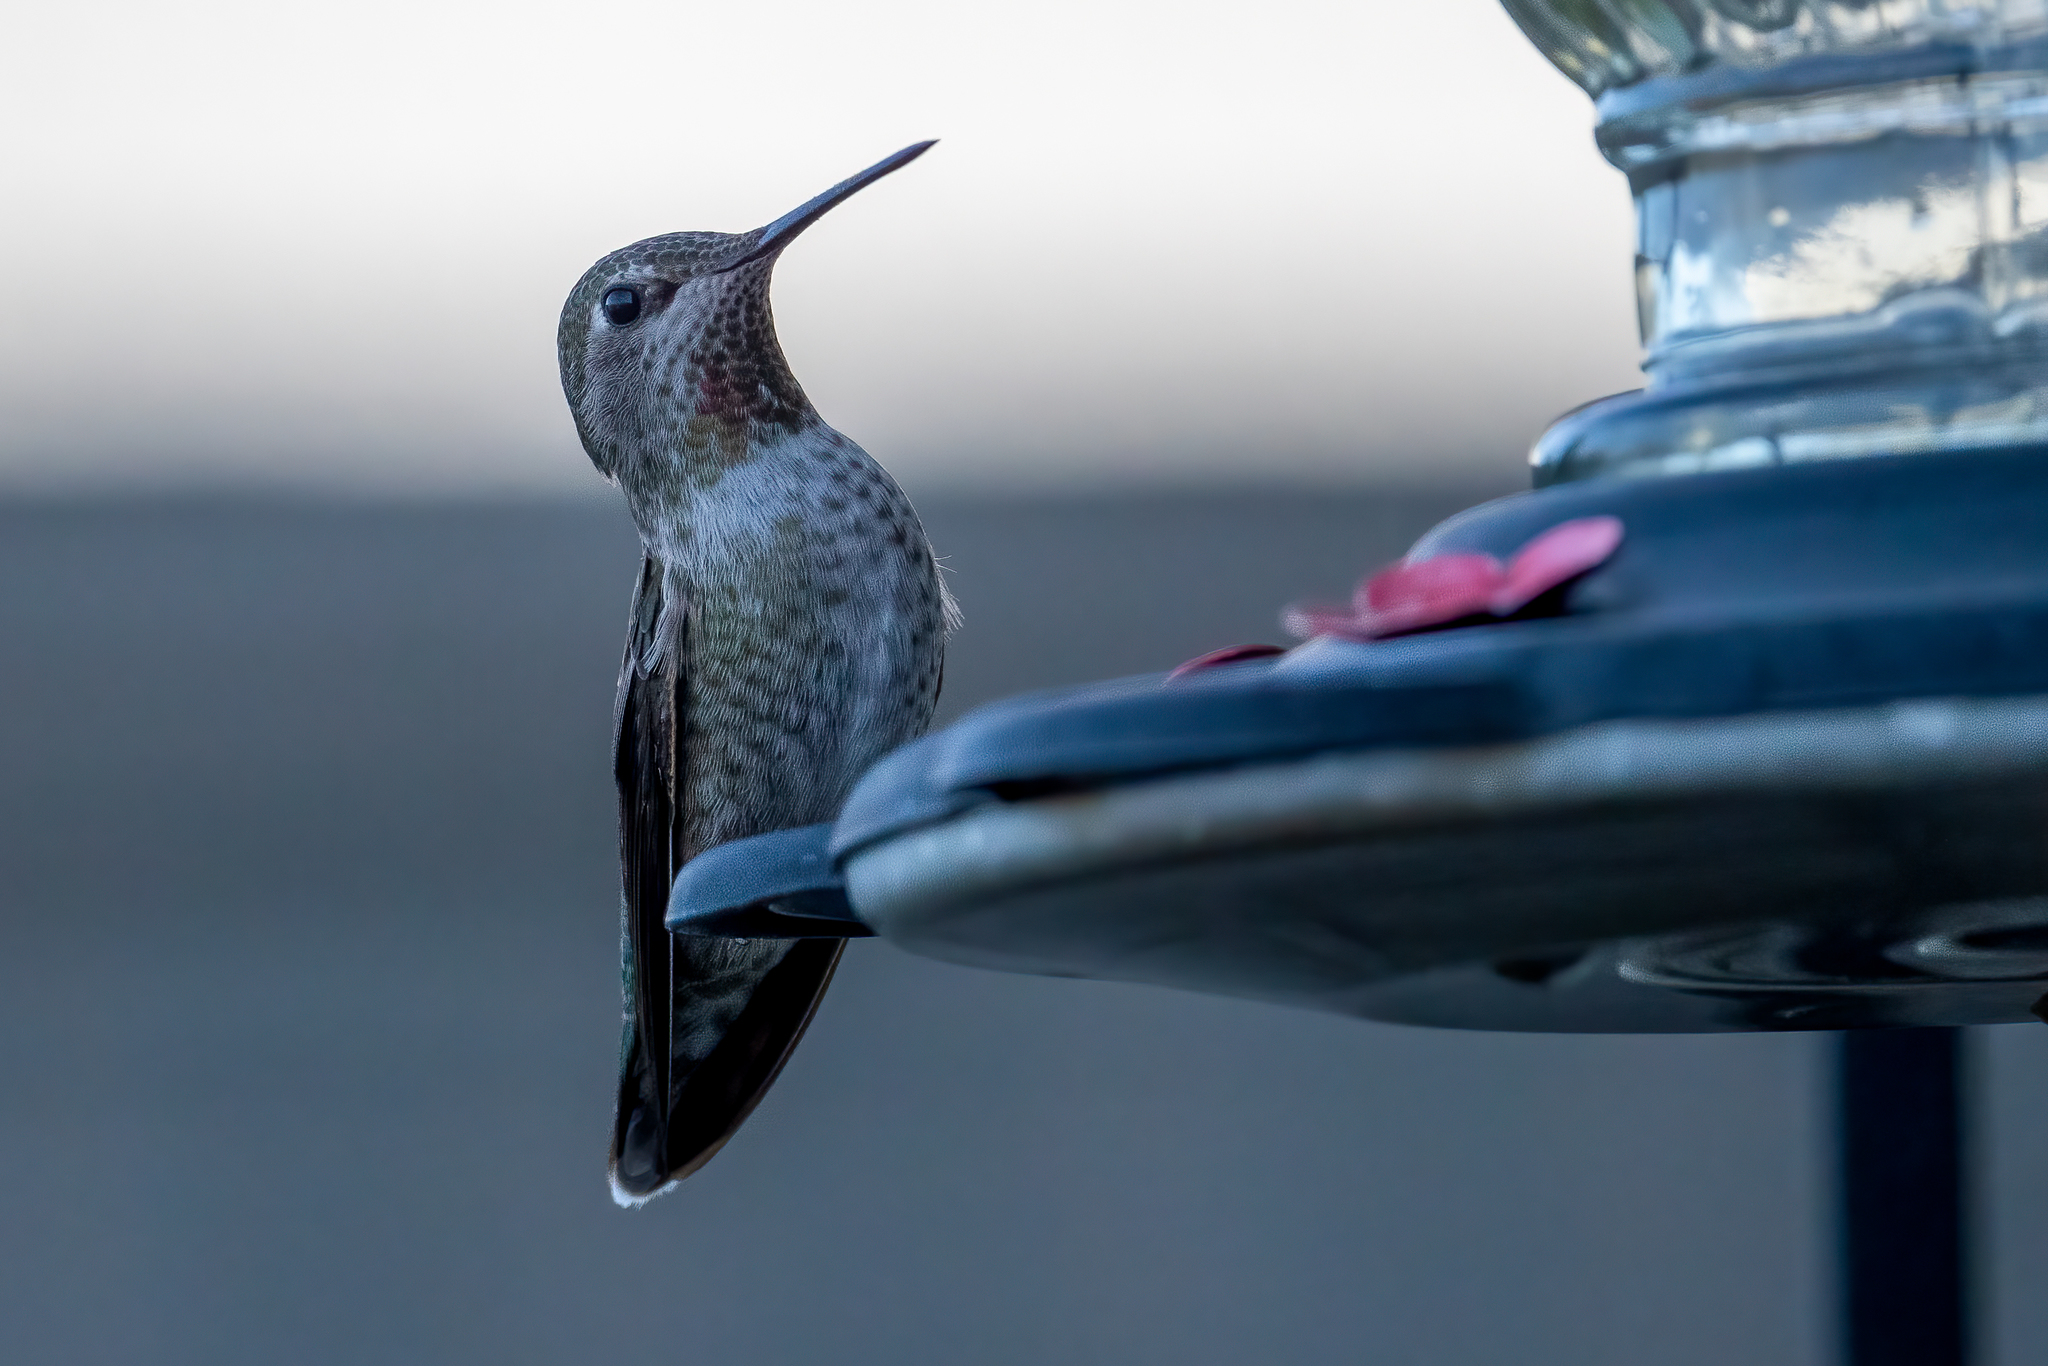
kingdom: Animalia
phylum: Chordata
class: Aves
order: Apodiformes
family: Trochilidae
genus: Calypte
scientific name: Calypte anna
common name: Anna's hummingbird
